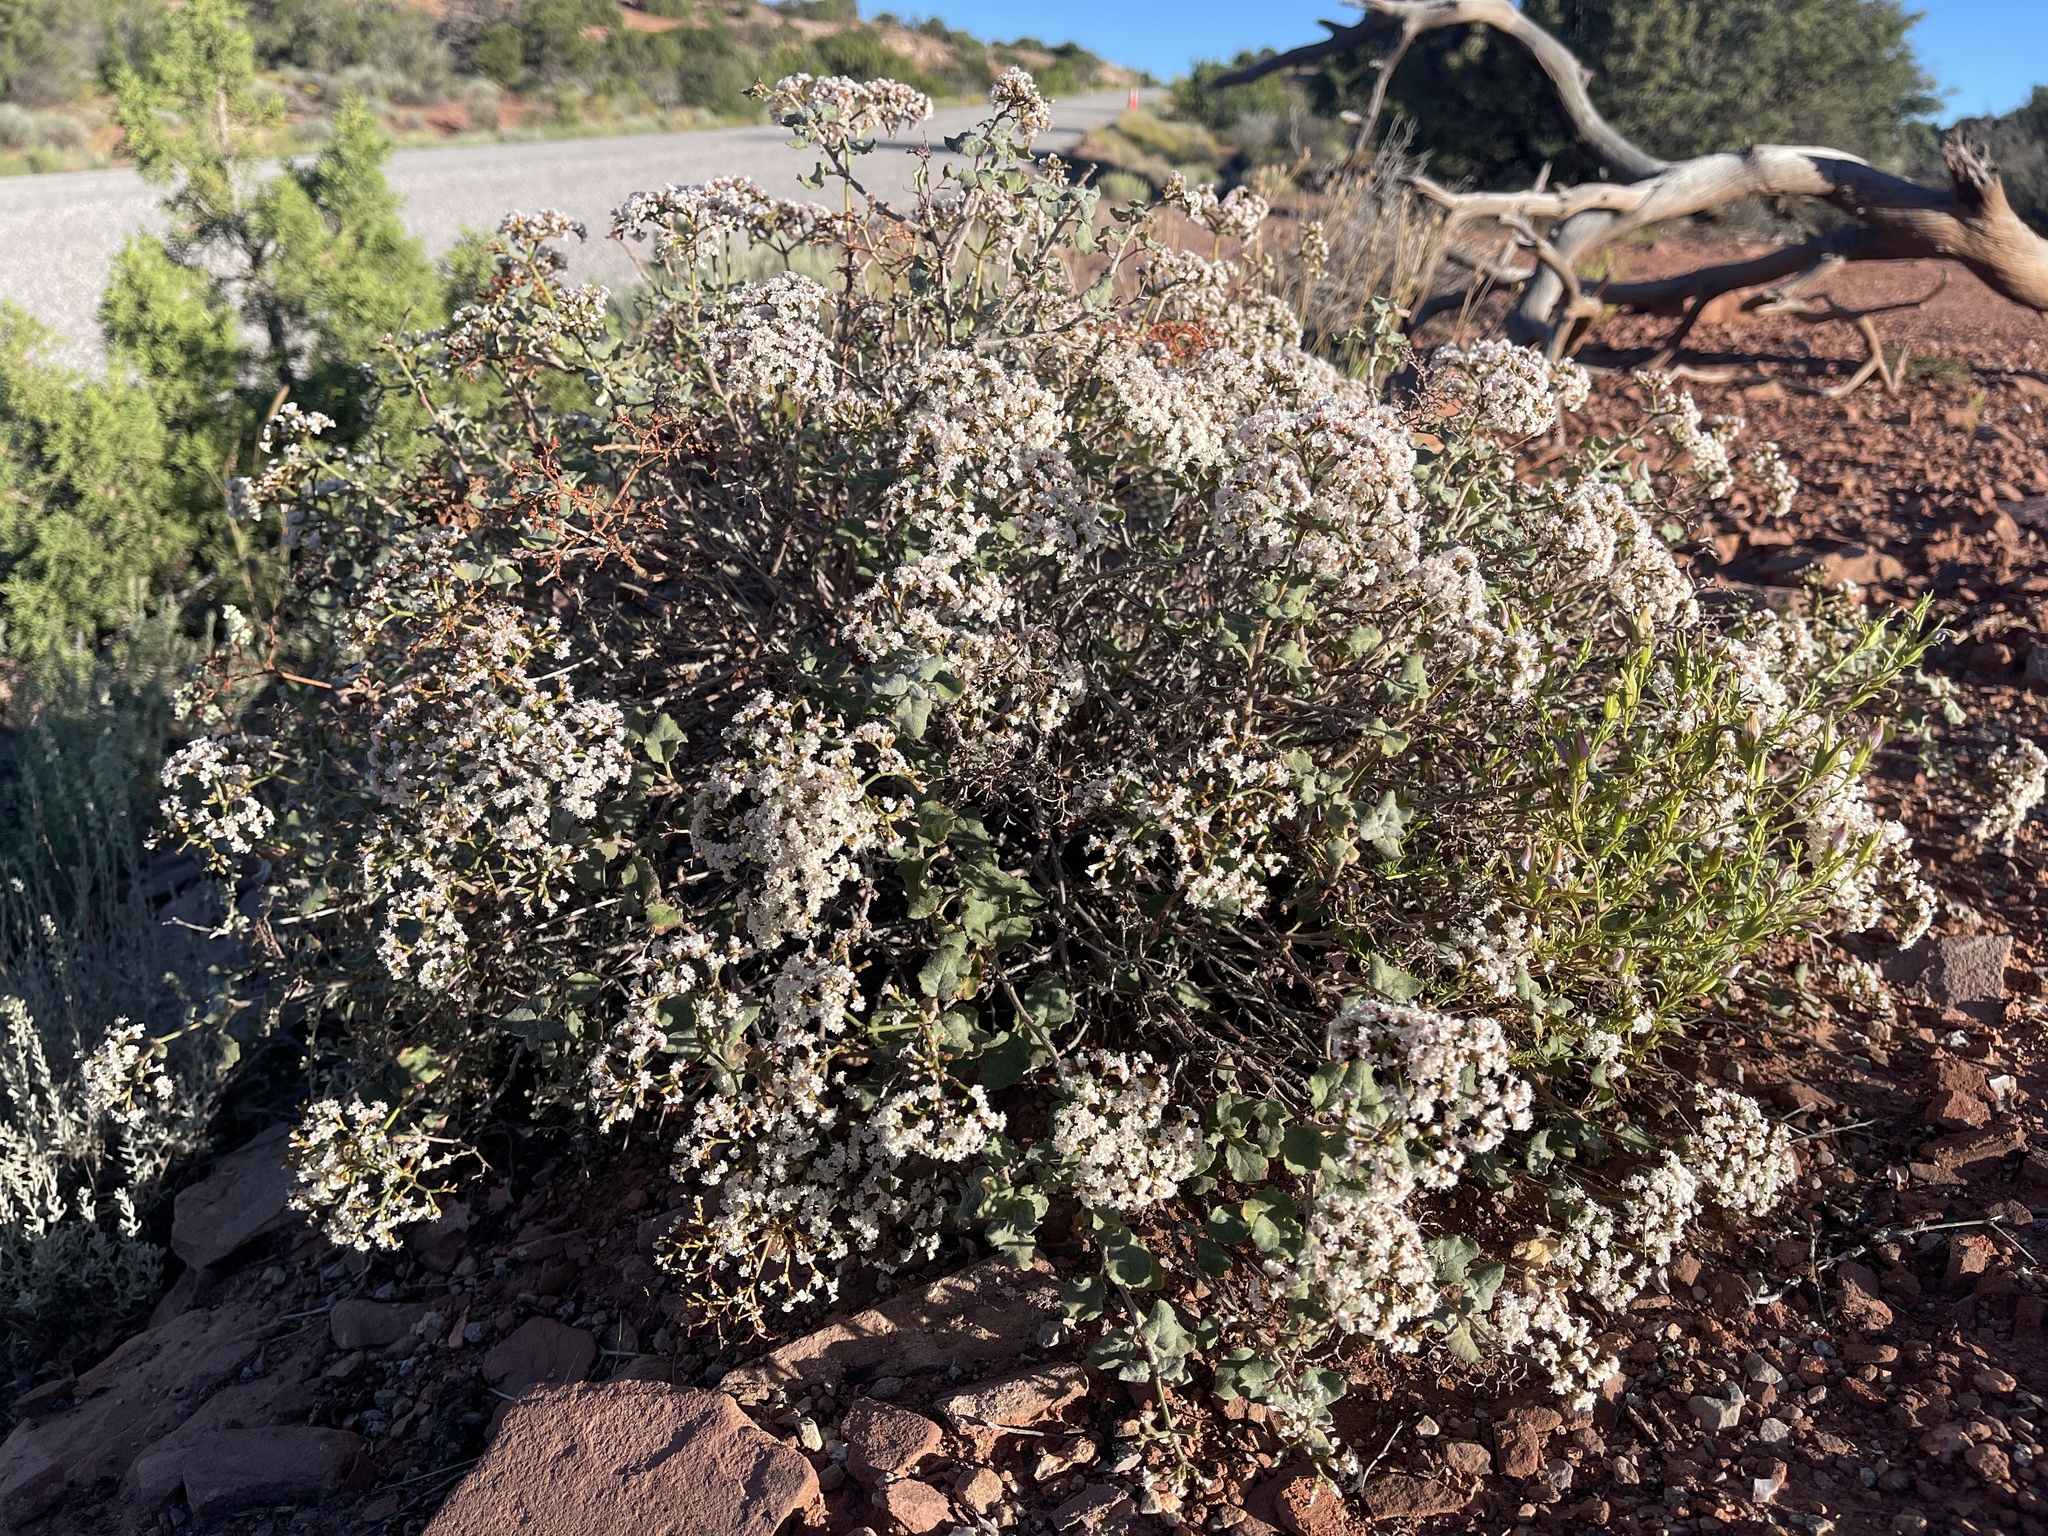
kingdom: Plantae
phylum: Tracheophyta
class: Magnoliopsida
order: Caryophyllales
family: Polygonaceae
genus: Eriogonum
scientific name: Eriogonum corymbosum
